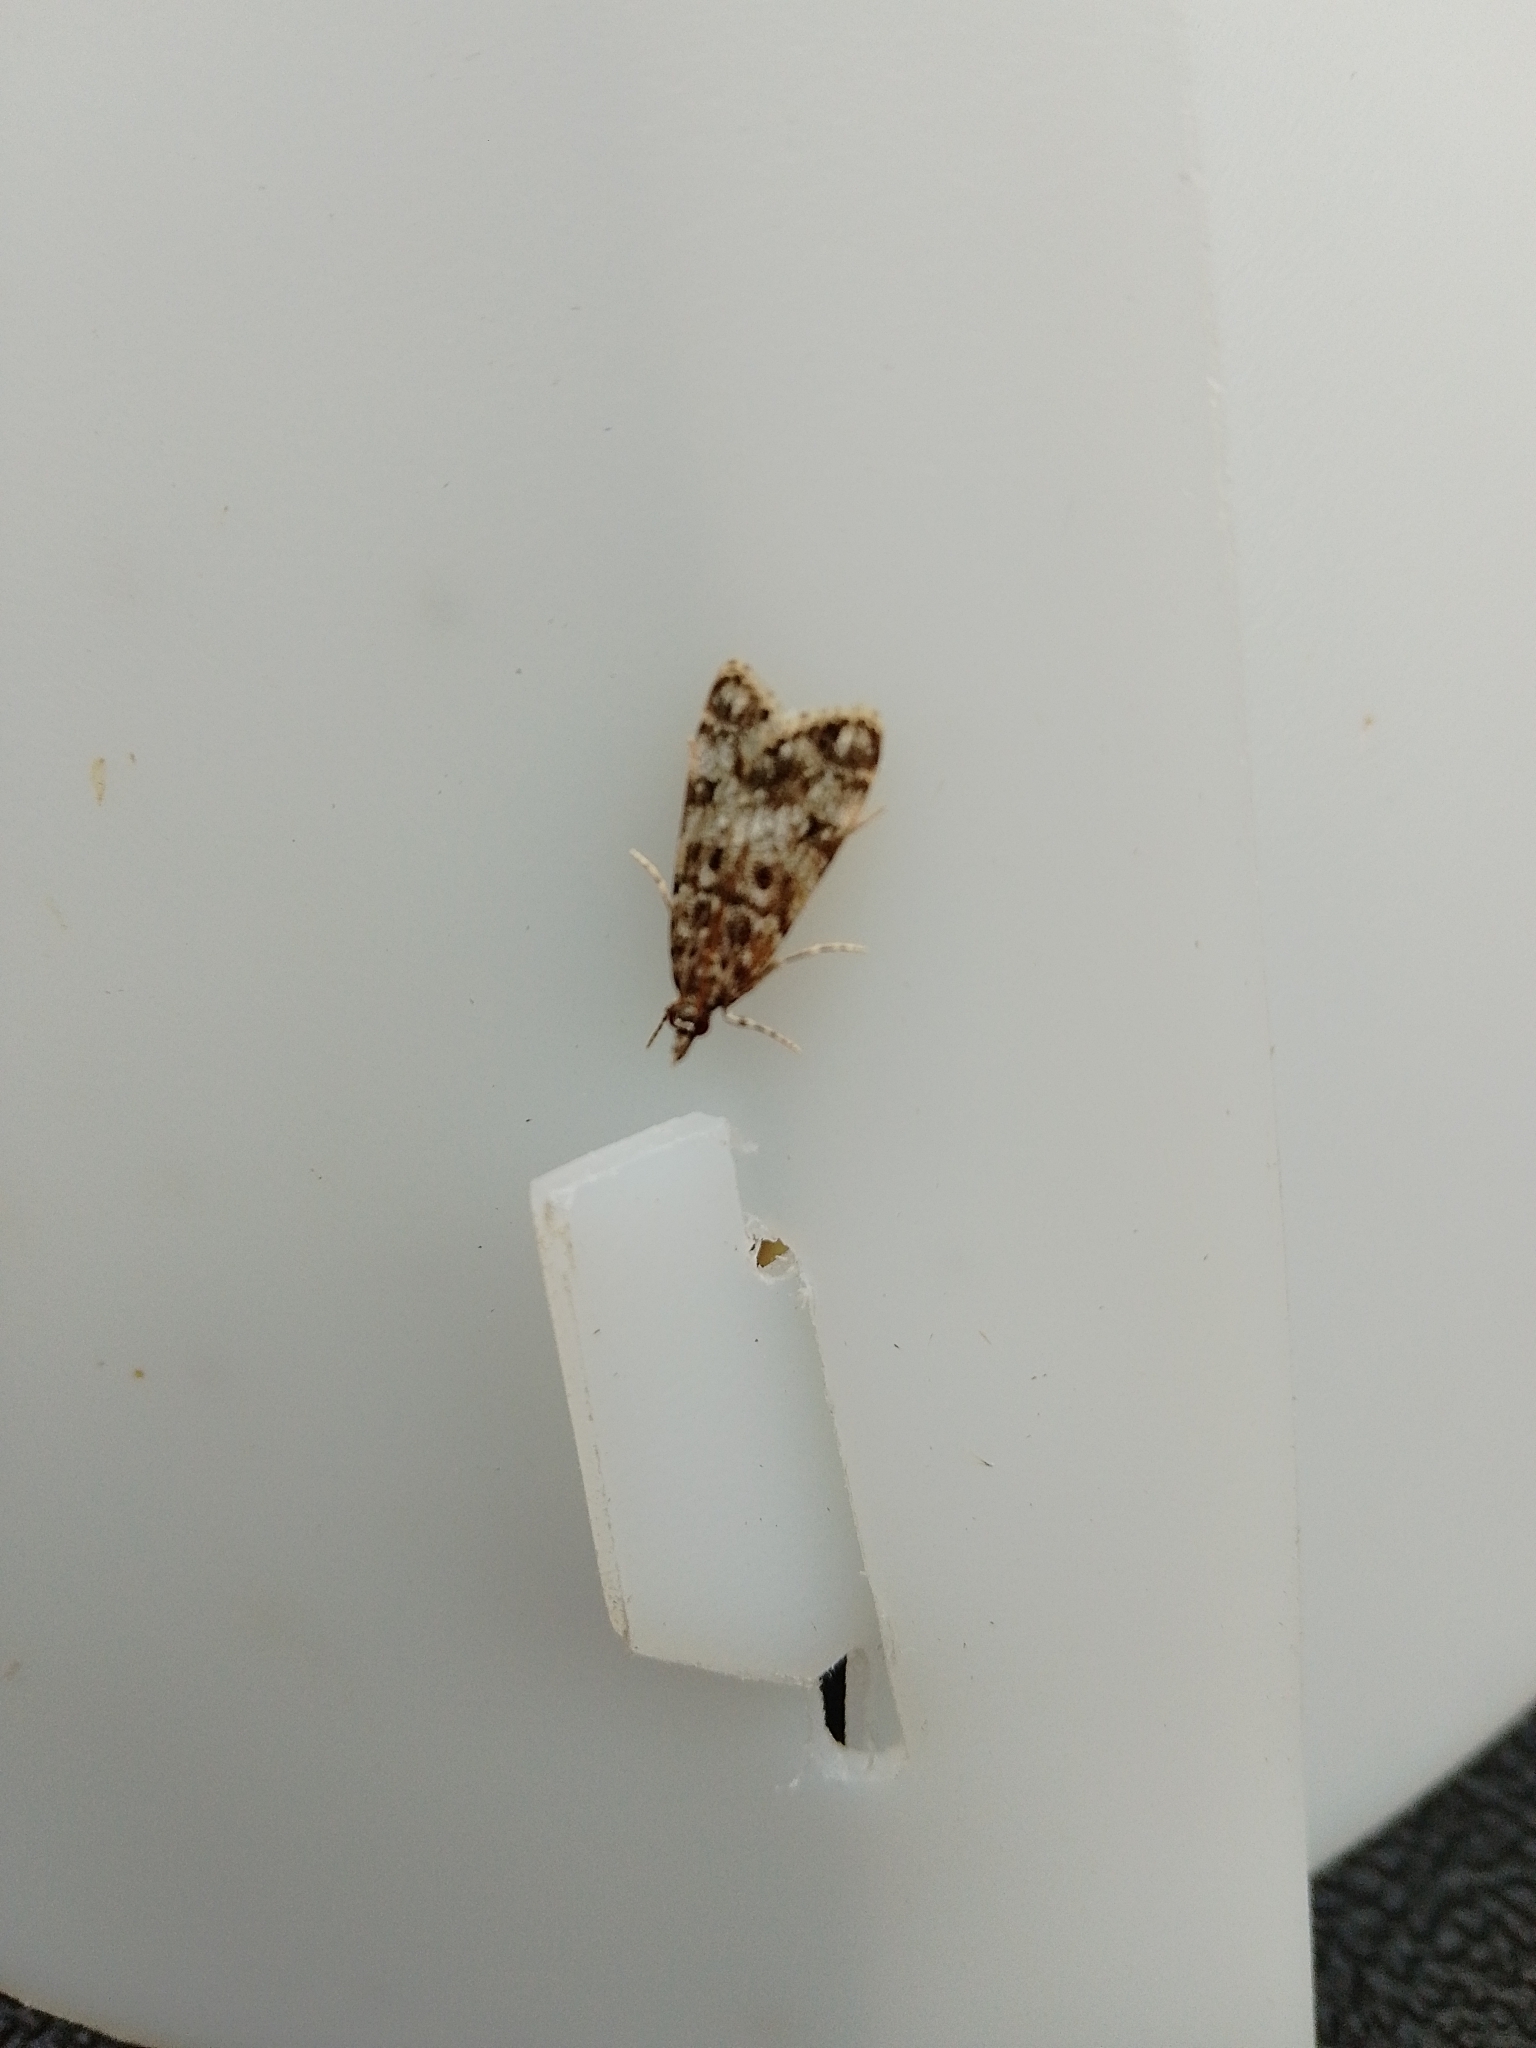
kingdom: Animalia
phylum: Arthropoda
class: Insecta
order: Lepidoptera
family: Crambidae
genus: Eudonia
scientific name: Eudonia lacustrata
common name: Little grey
